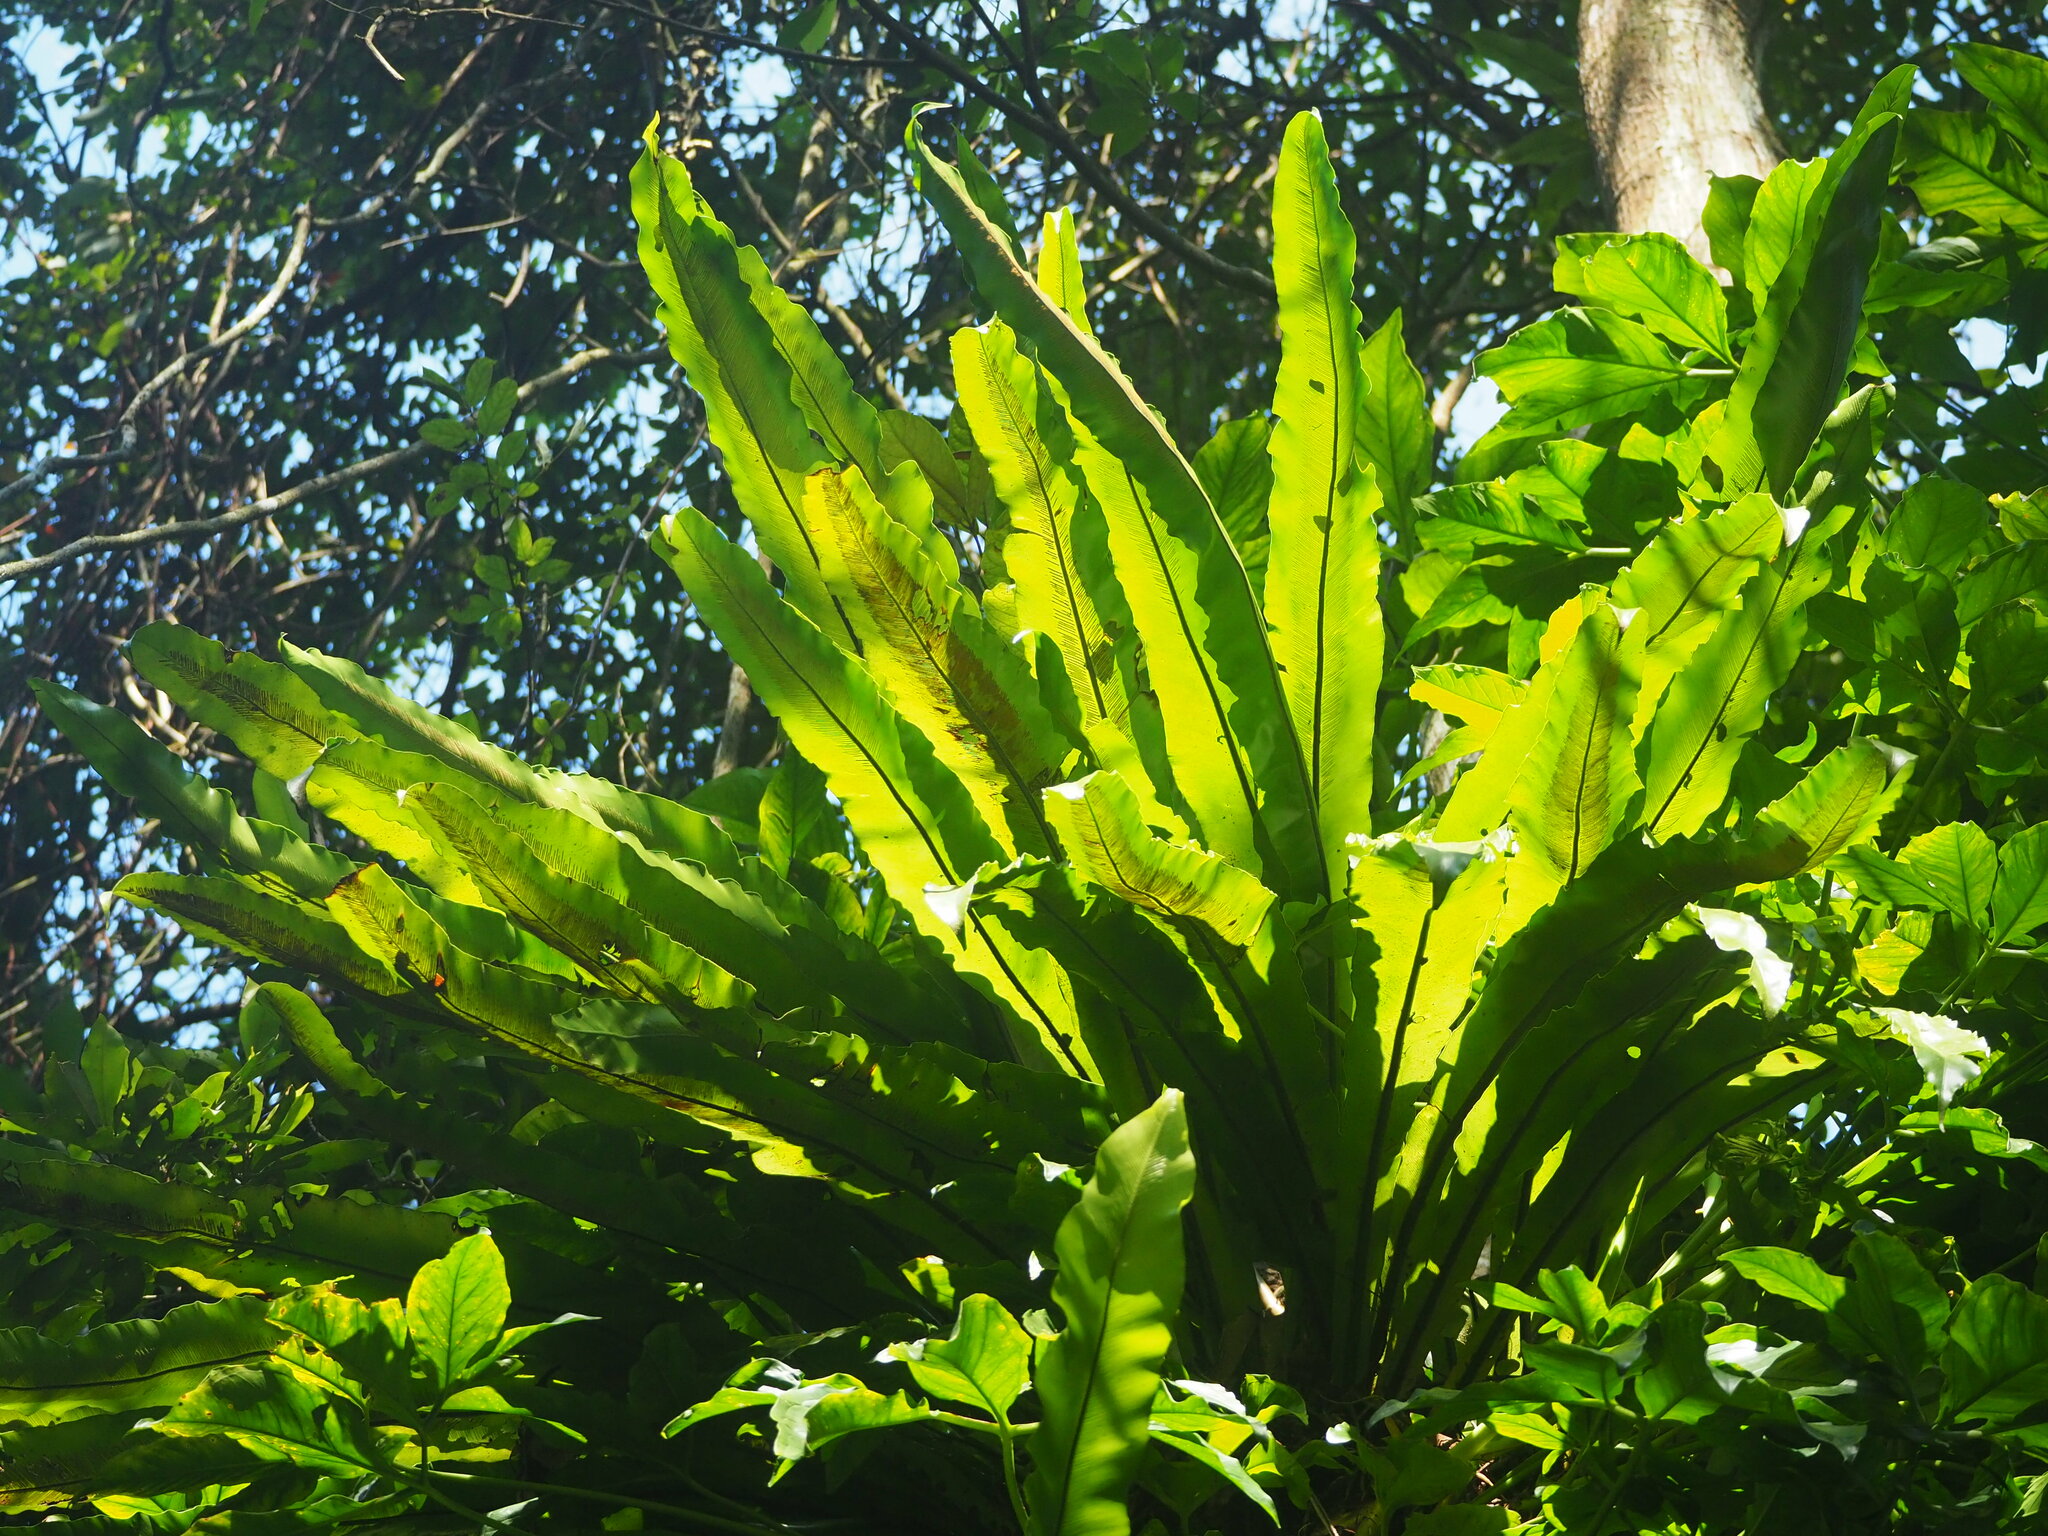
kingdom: Plantae
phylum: Tracheophyta
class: Polypodiopsida
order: Polypodiales
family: Aspleniaceae
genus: Asplenium
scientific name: Asplenium nidus
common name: Bird's-nest fern
